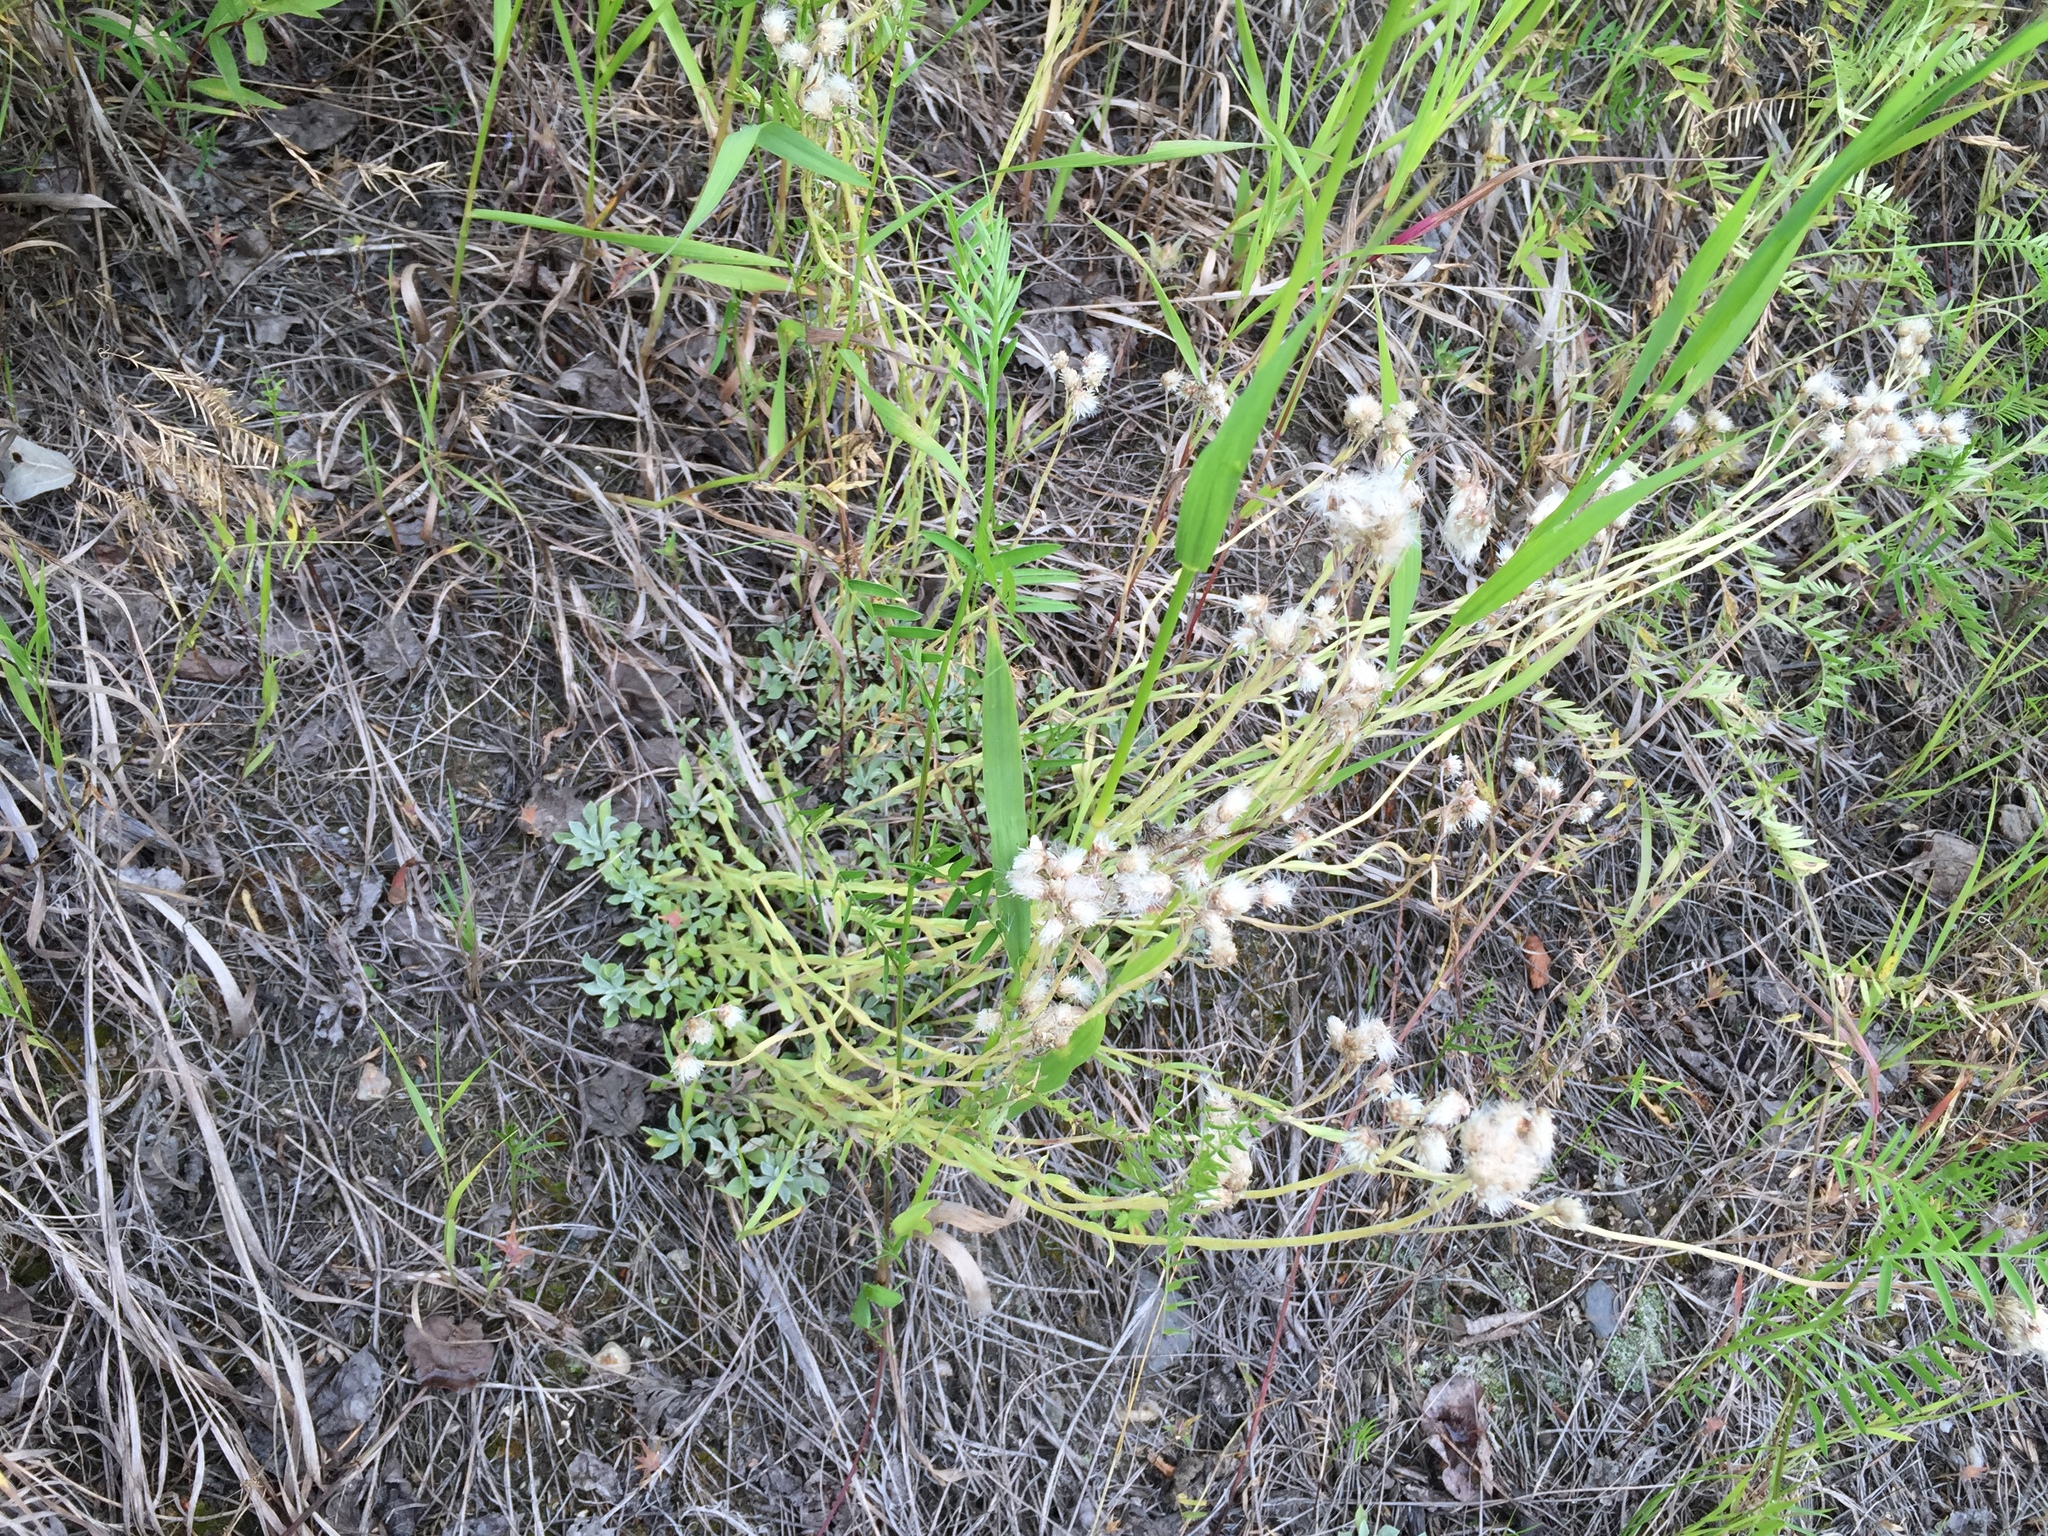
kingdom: Plantae
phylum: Tracheophyta
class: Magnoliopsida
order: Asterales
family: Asteraceae
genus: Antennaria
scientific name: Antennaria rosea
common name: Rosy pussytoes
